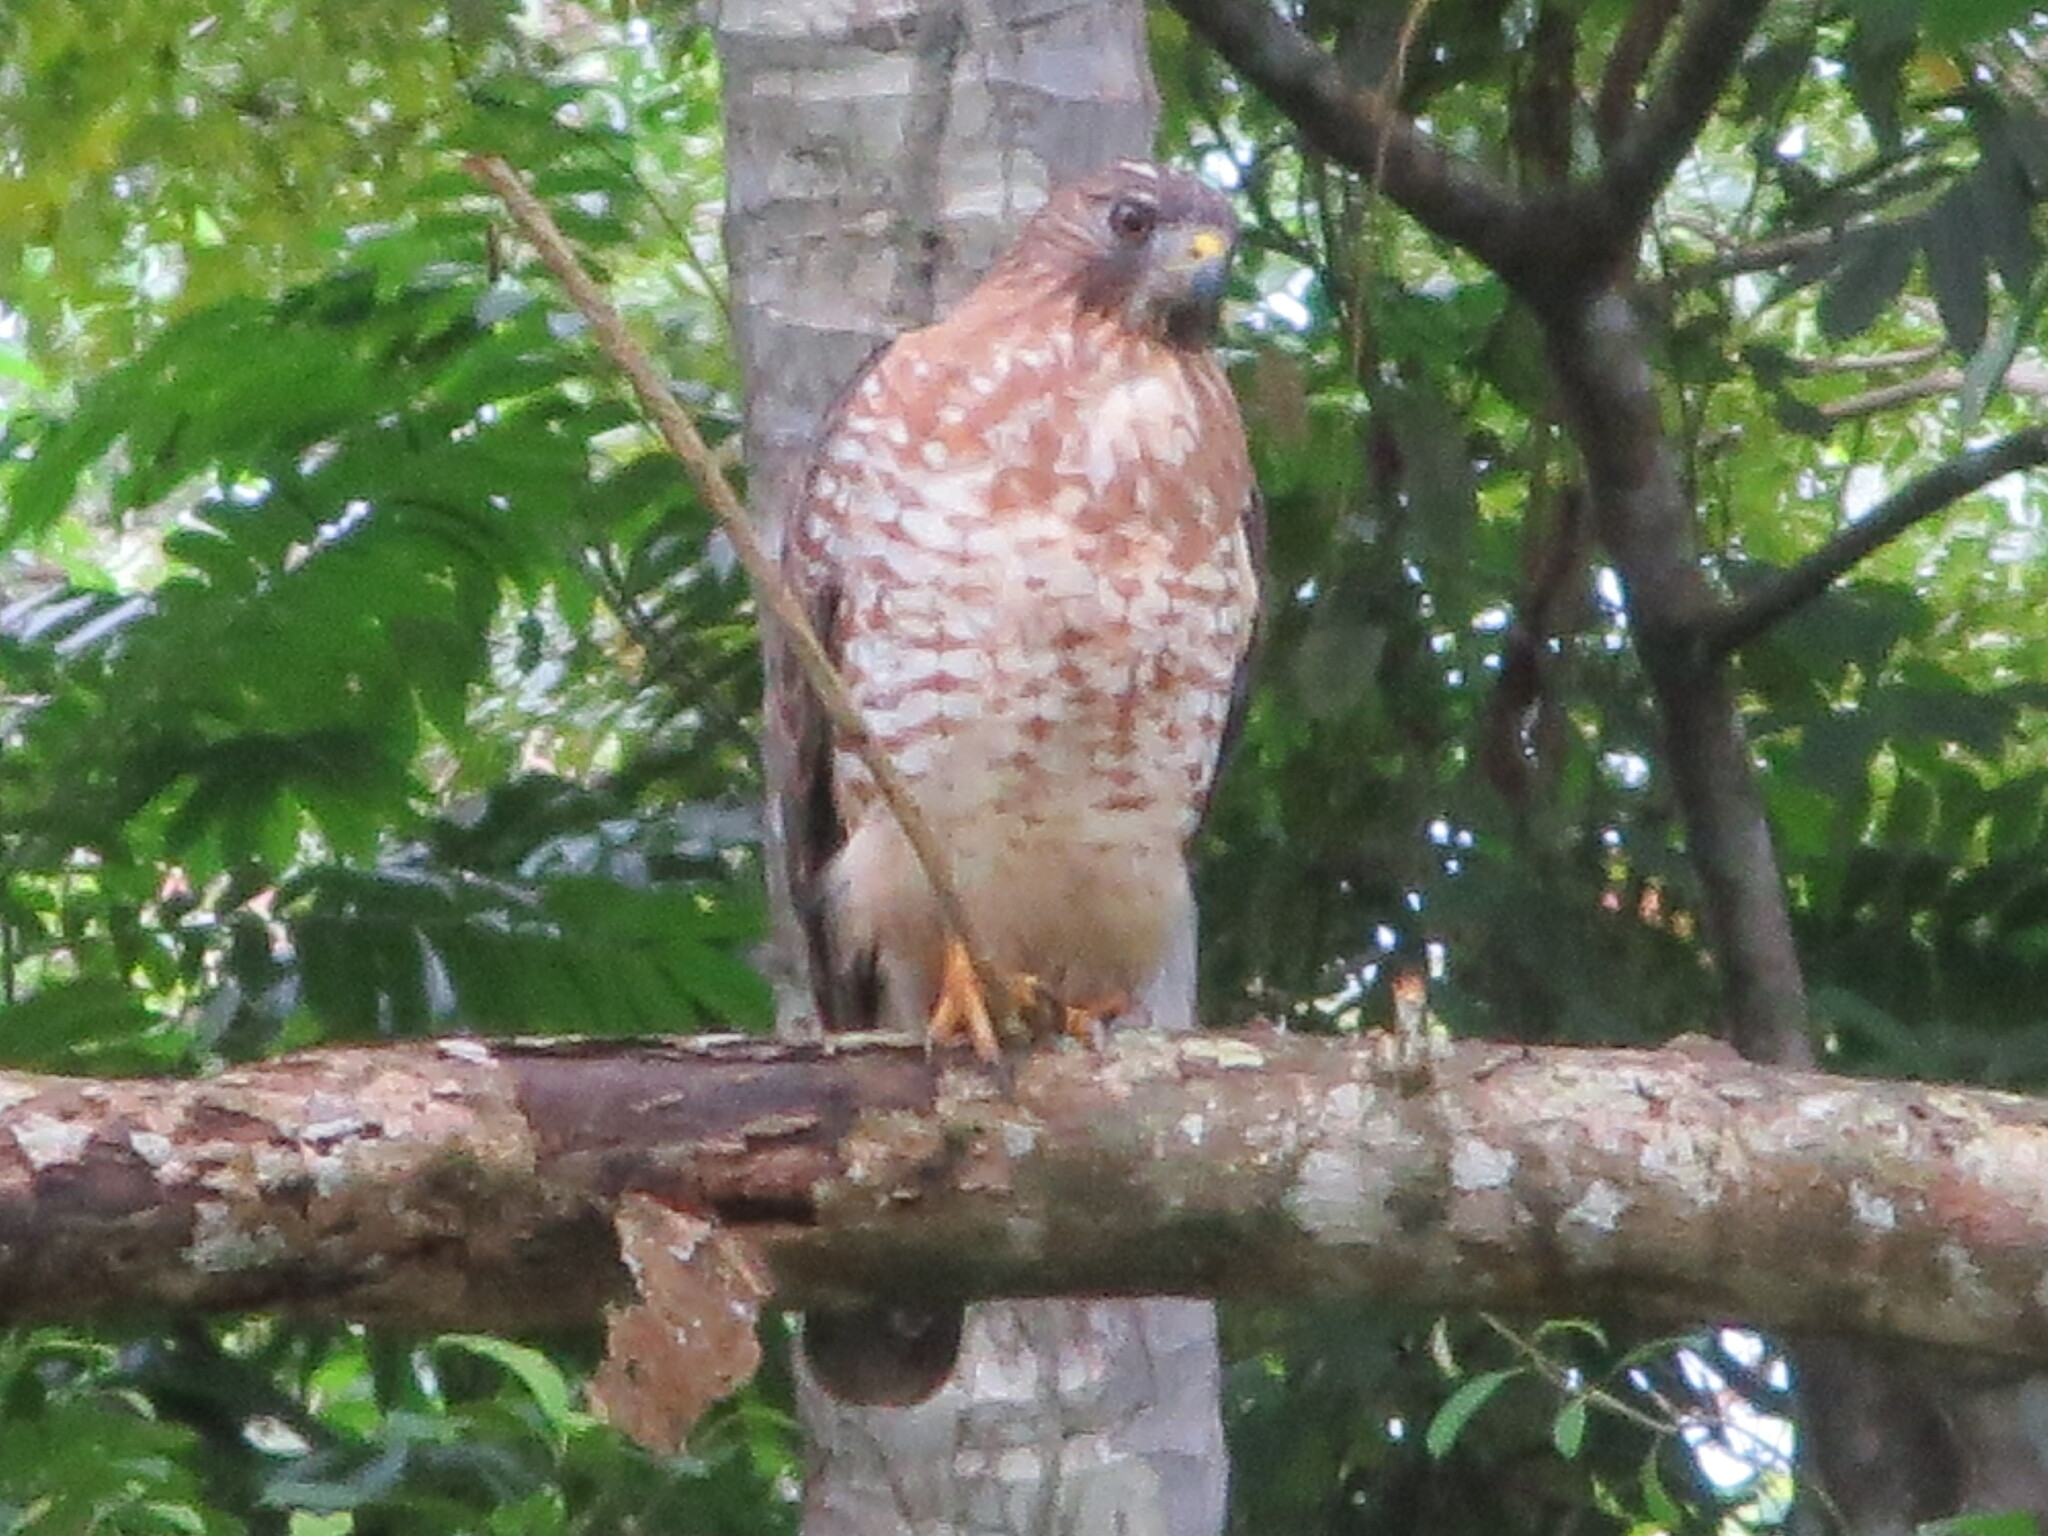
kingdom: Animalia
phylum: Chordata
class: Aves
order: Accipitriformes
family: Accipitridae
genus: Buteo
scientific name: Buteo platypterus
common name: Broad-winged hawk
